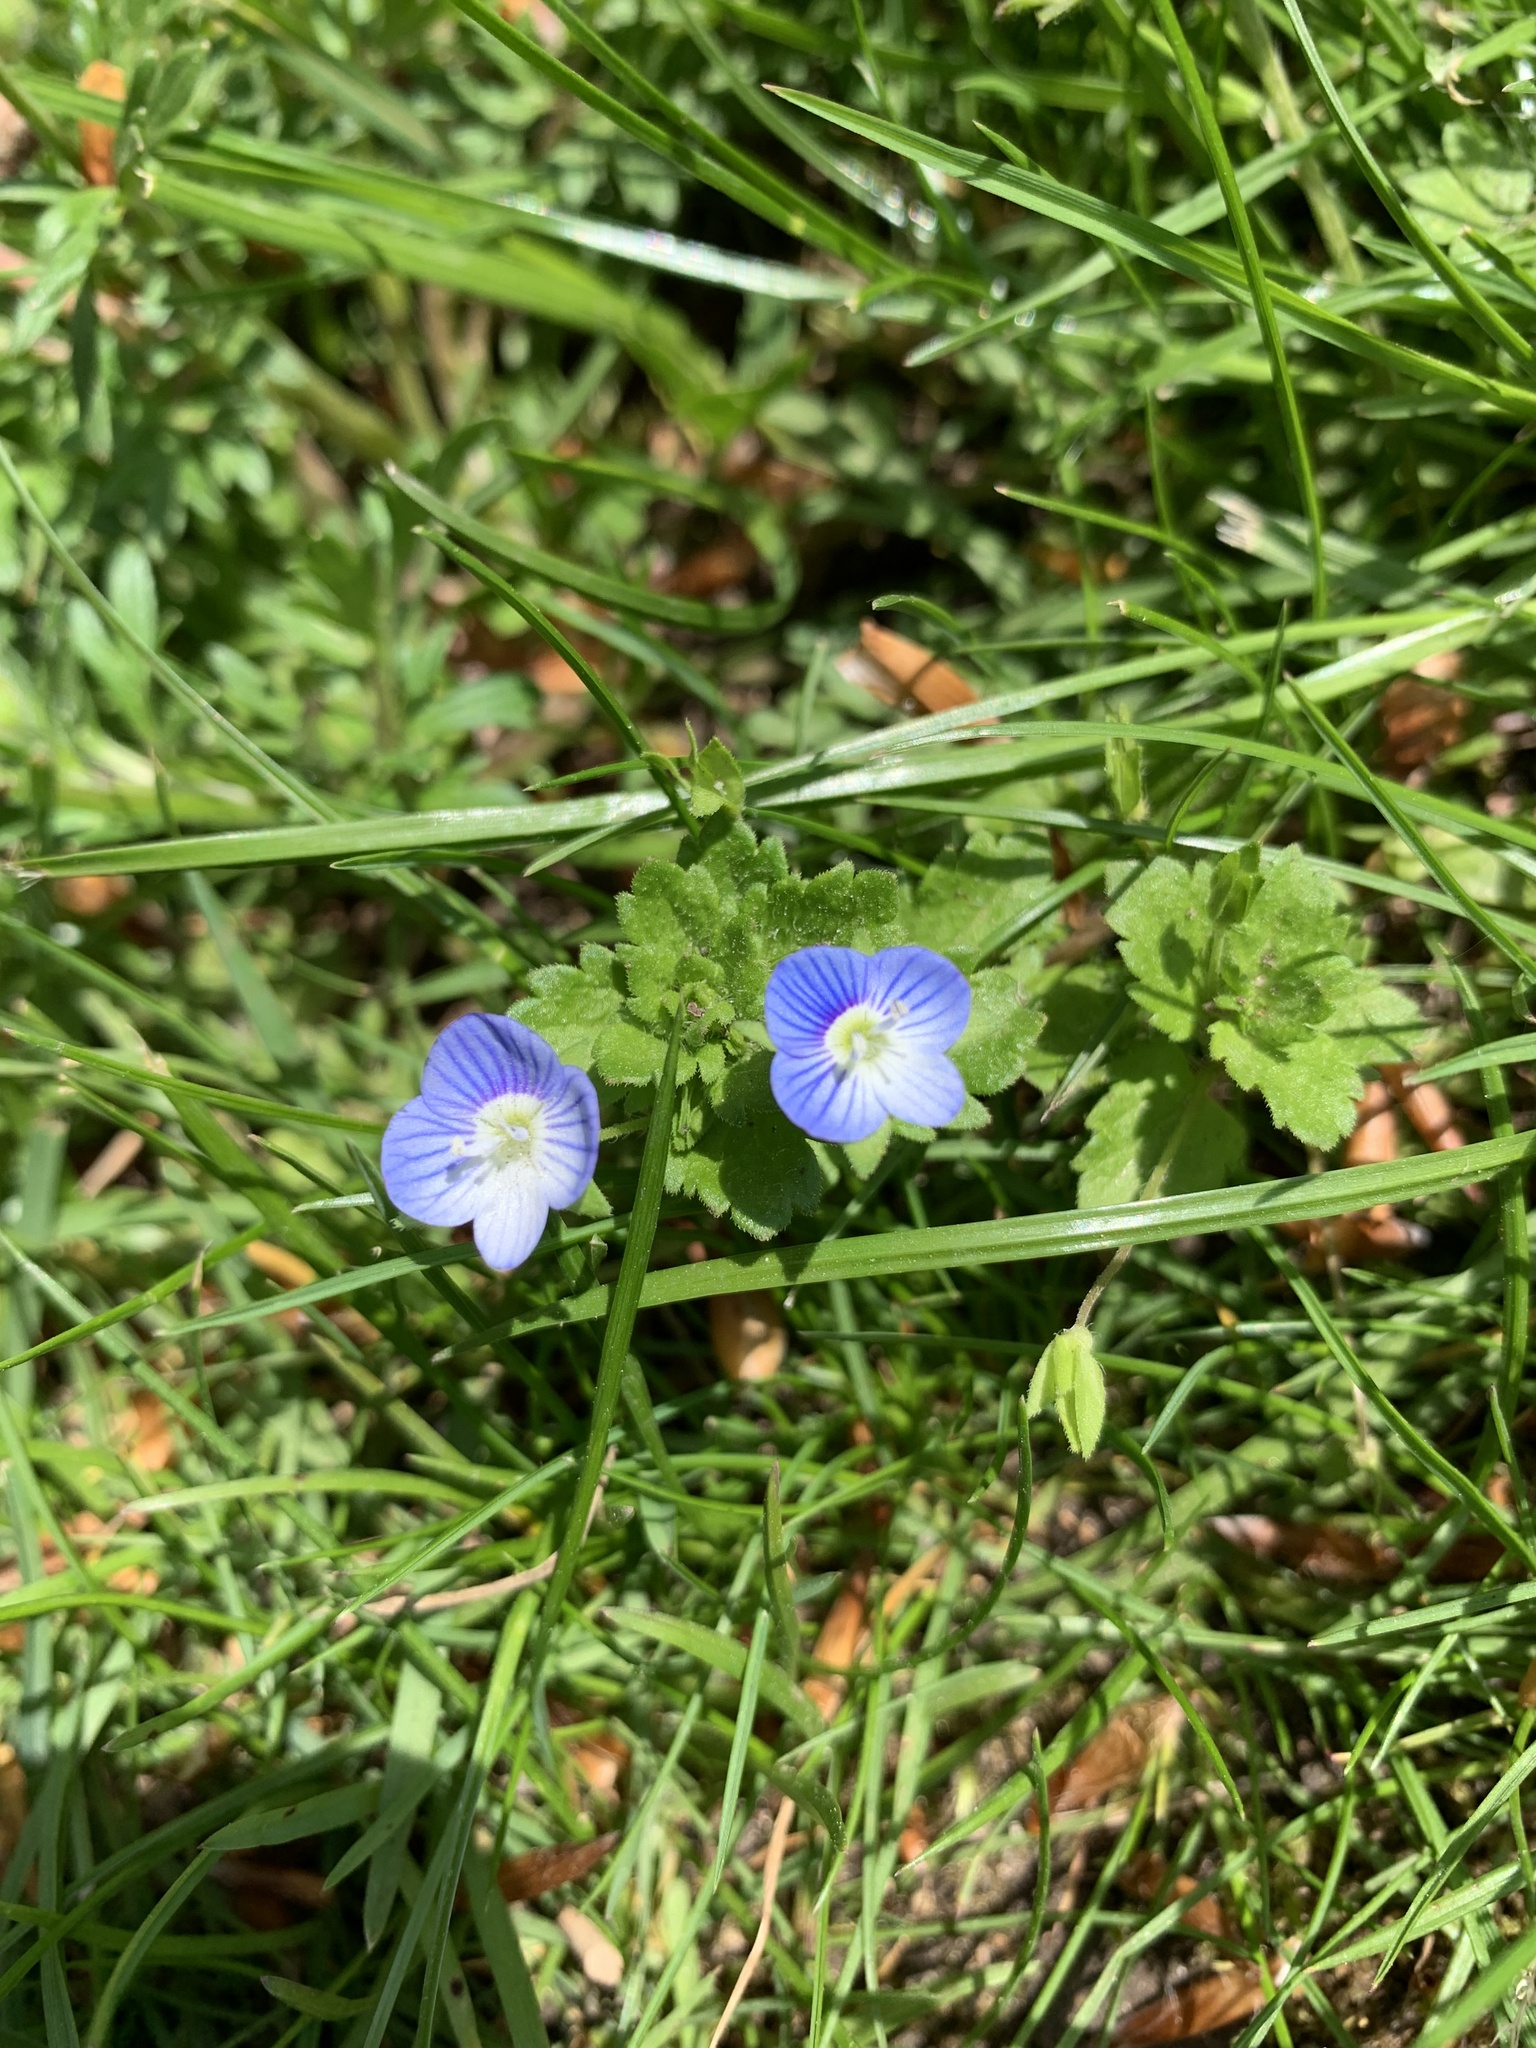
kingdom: Plantae
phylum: Tracheophyta
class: Magnoliopsida
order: Lamiales
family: Plantaginaceae
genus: Veronica
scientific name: Veronica persica
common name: Common field-speedwell
